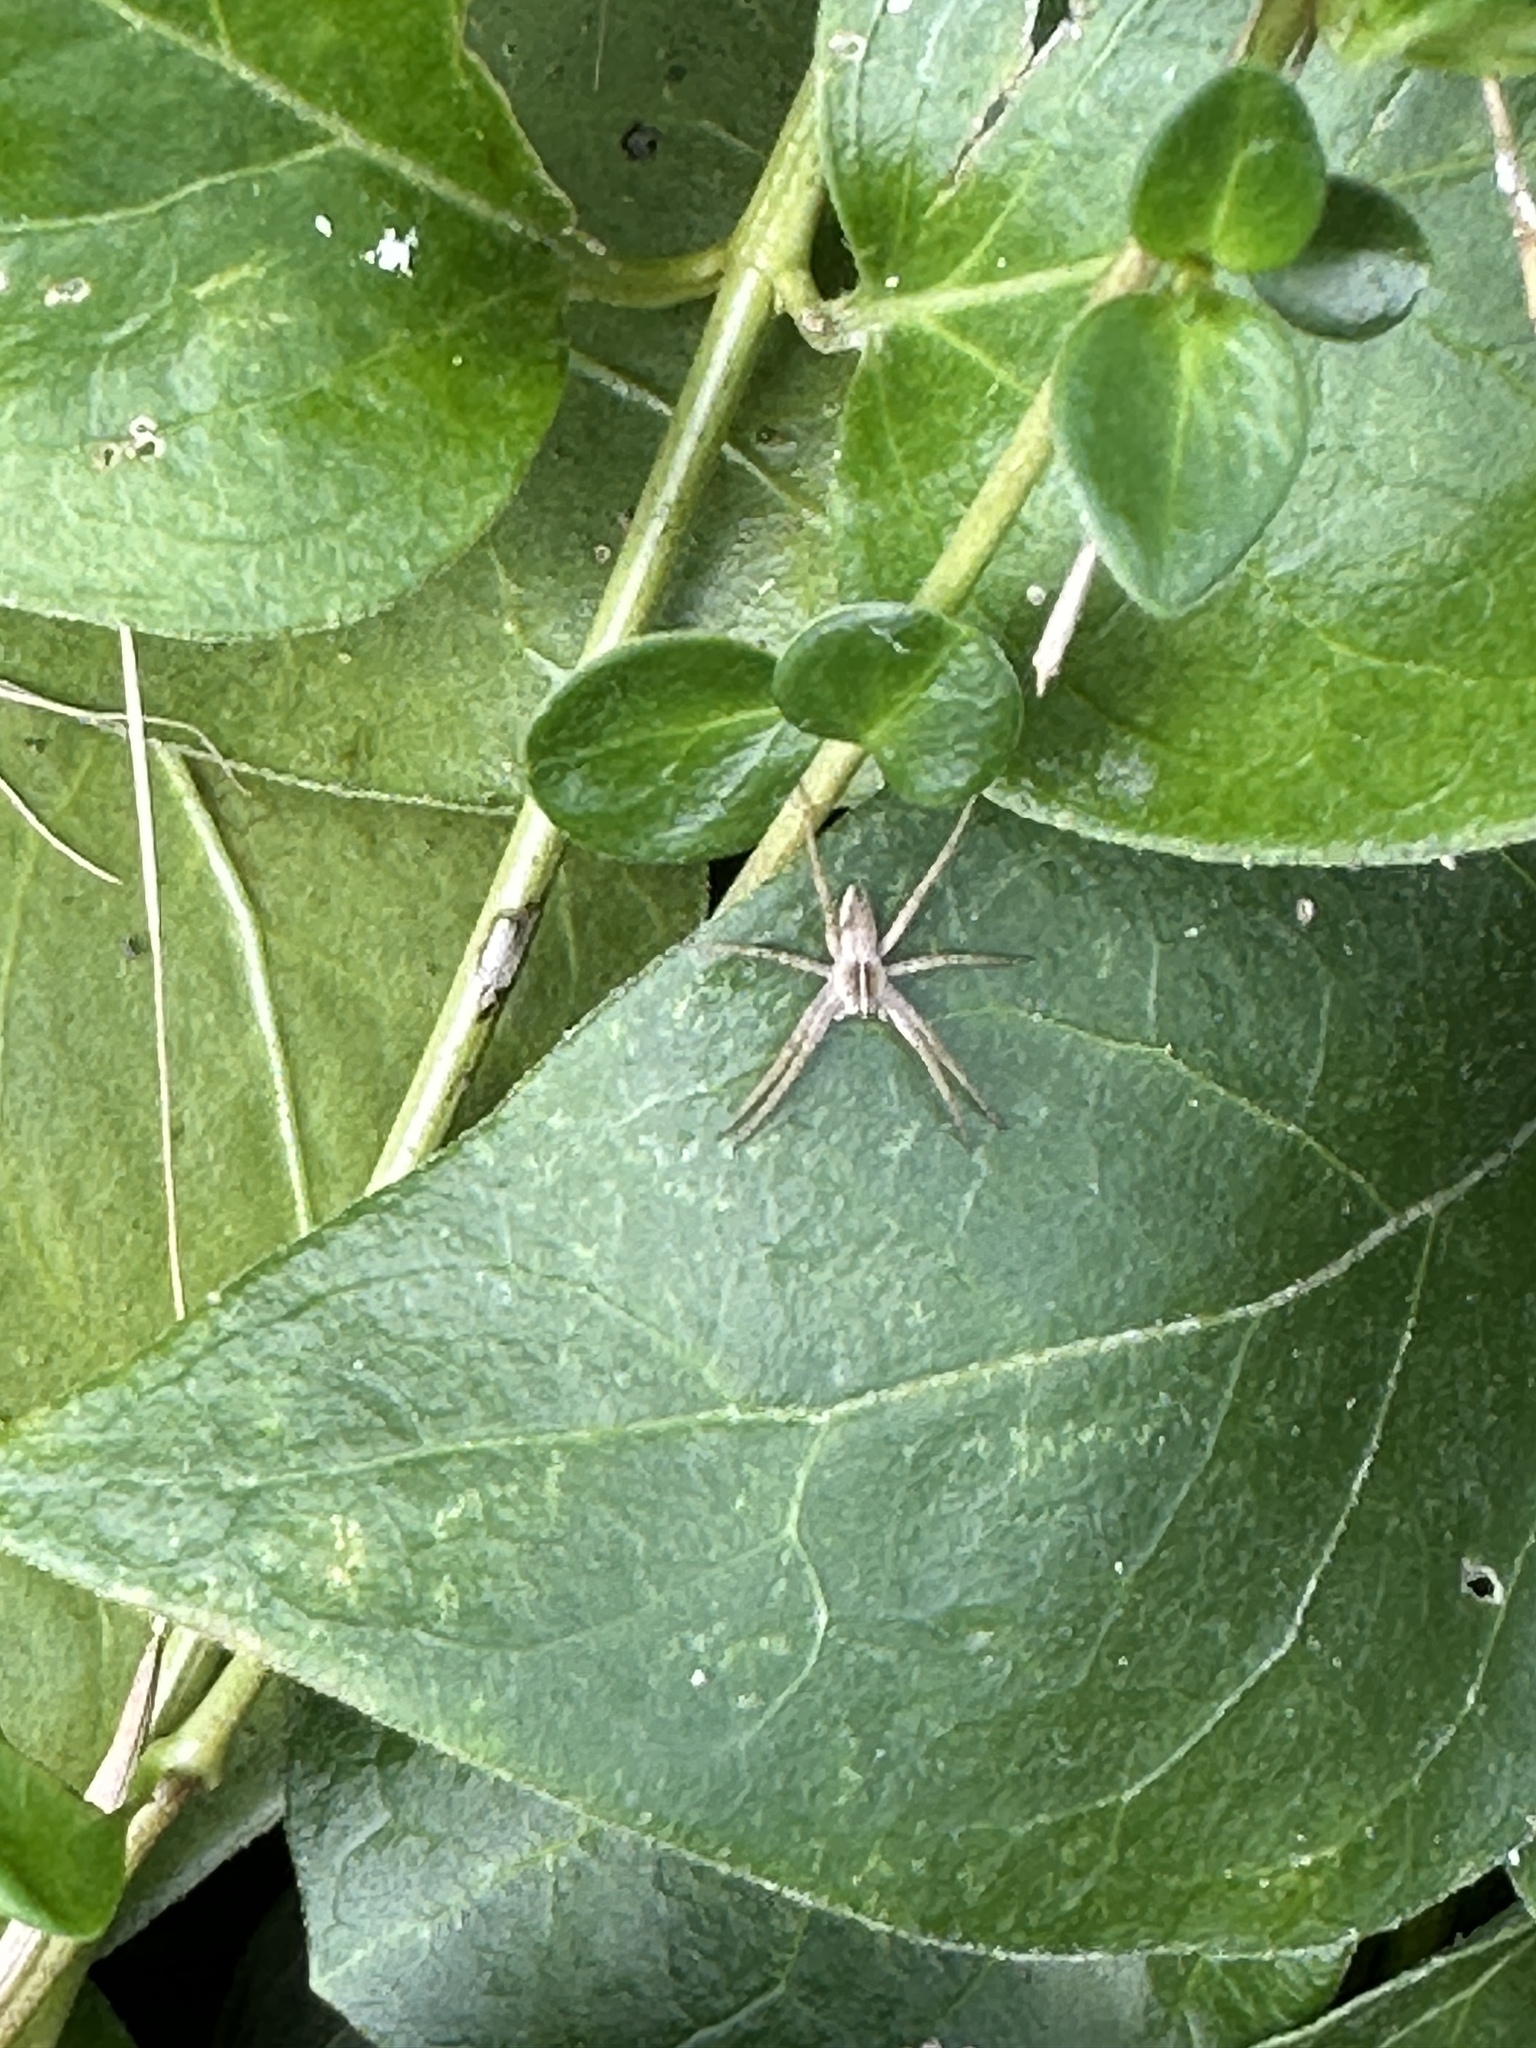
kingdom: Animalia
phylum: Arthropoda
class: Arachnida
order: Araneae
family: Pisauridae
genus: Pisaura
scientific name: Pisaura mirabilis
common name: Tent spider
